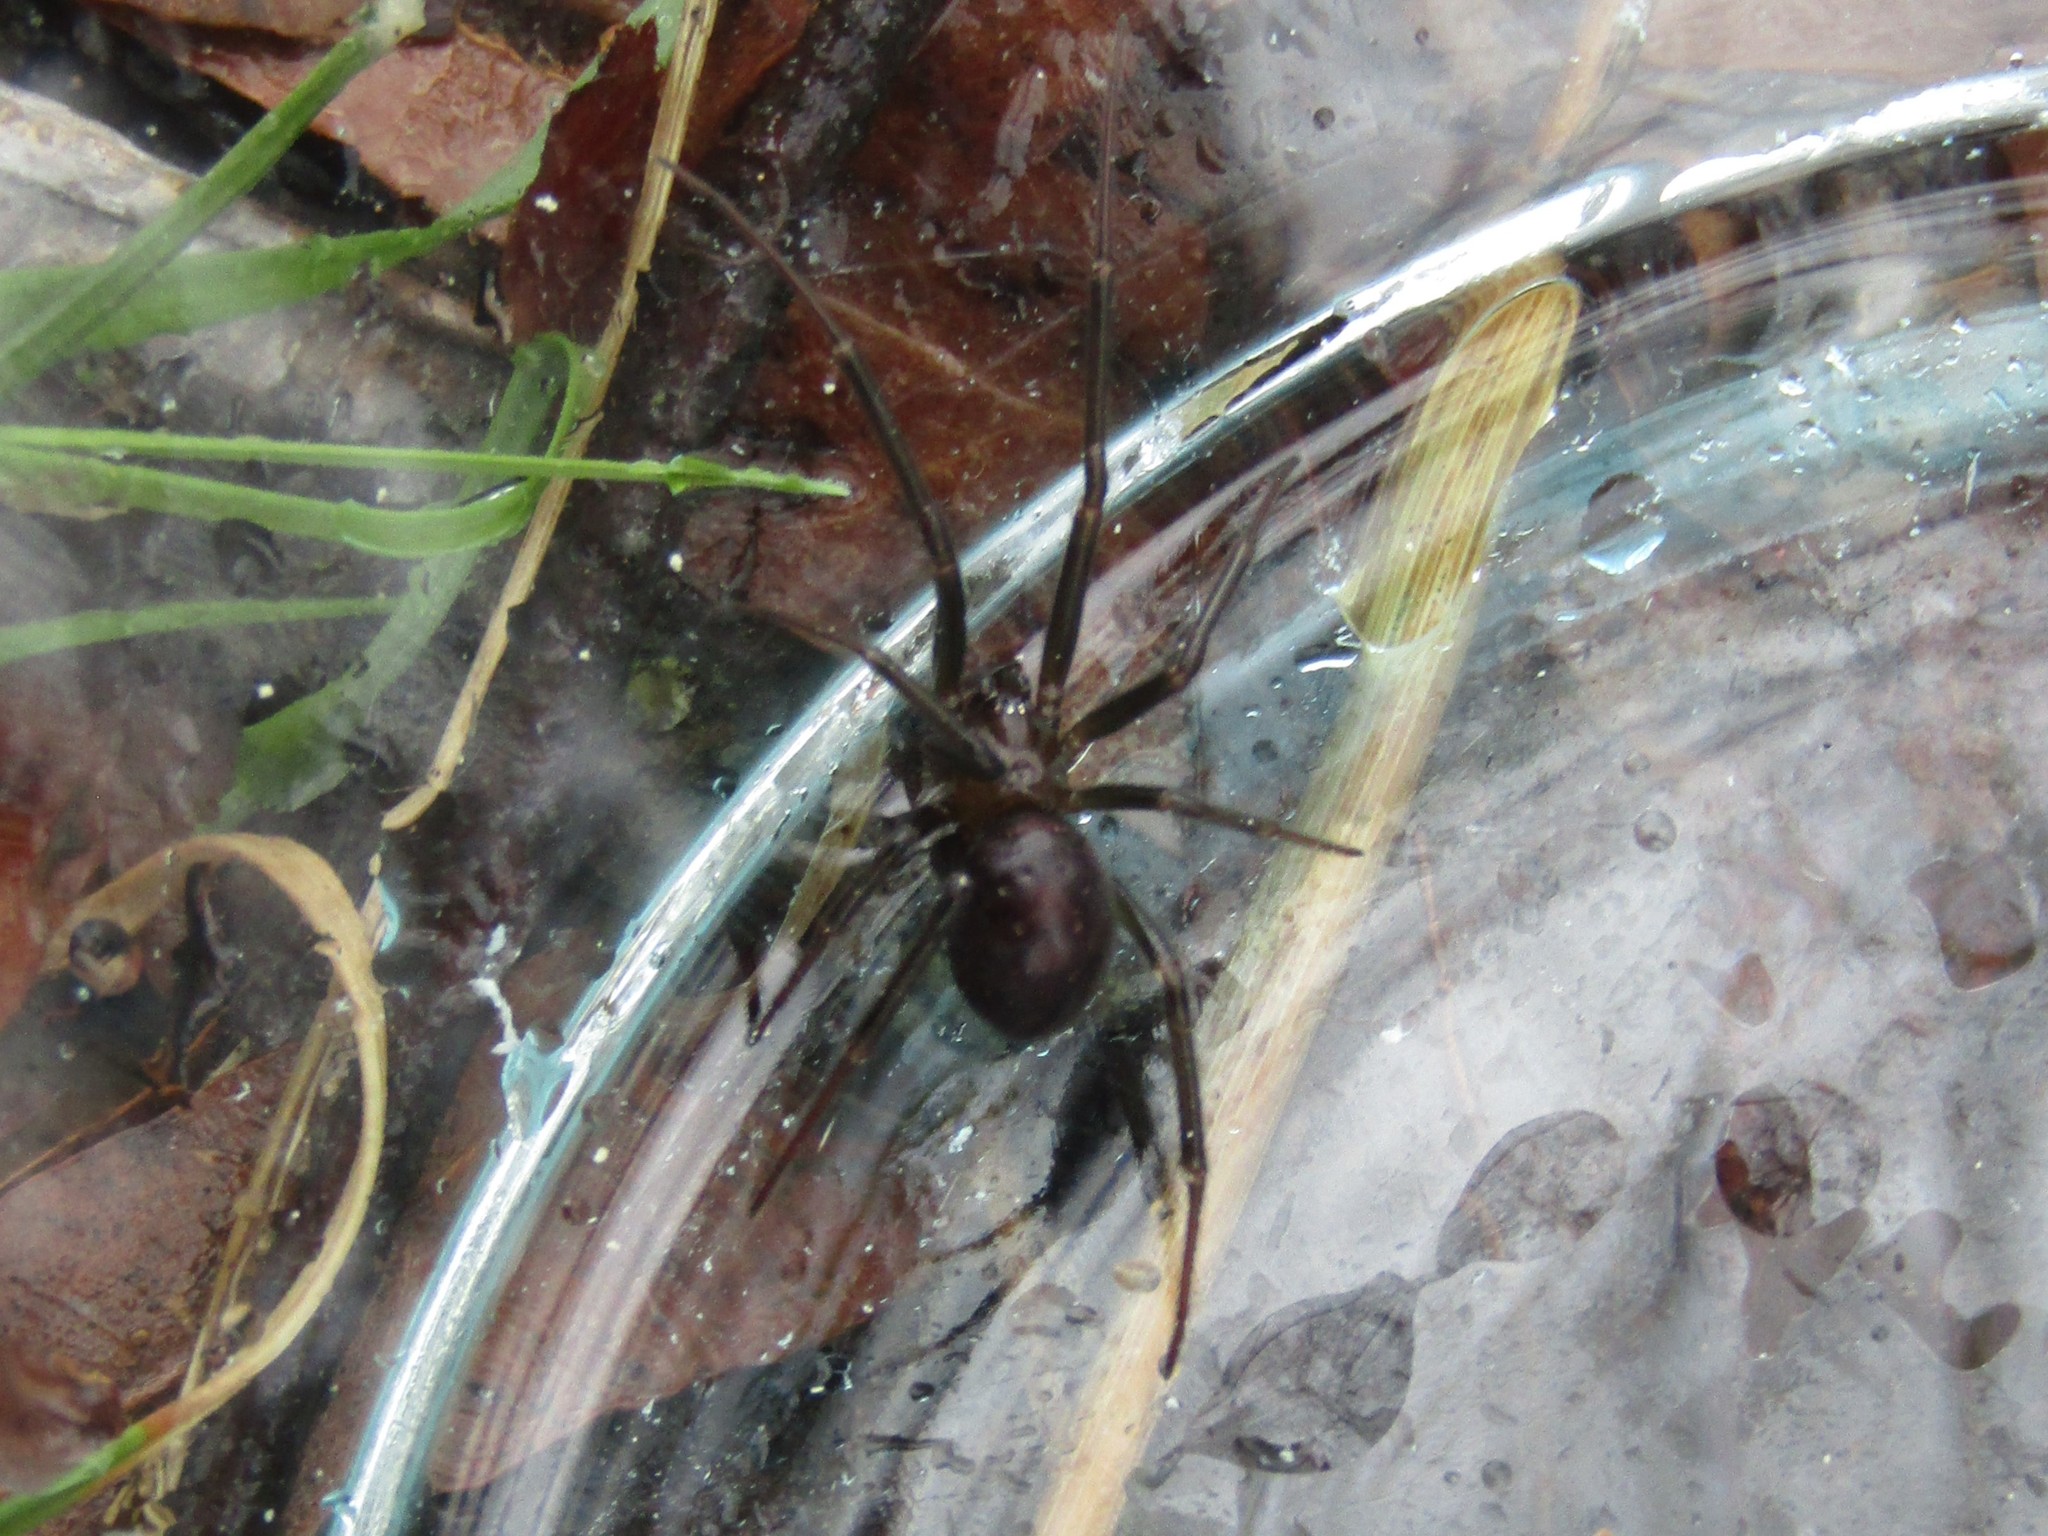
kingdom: Animalia
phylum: Arthropoda
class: Arachnida
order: Araneae
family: Theridiidae
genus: Steatoda
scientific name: Steatoda grossa
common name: False black widow
